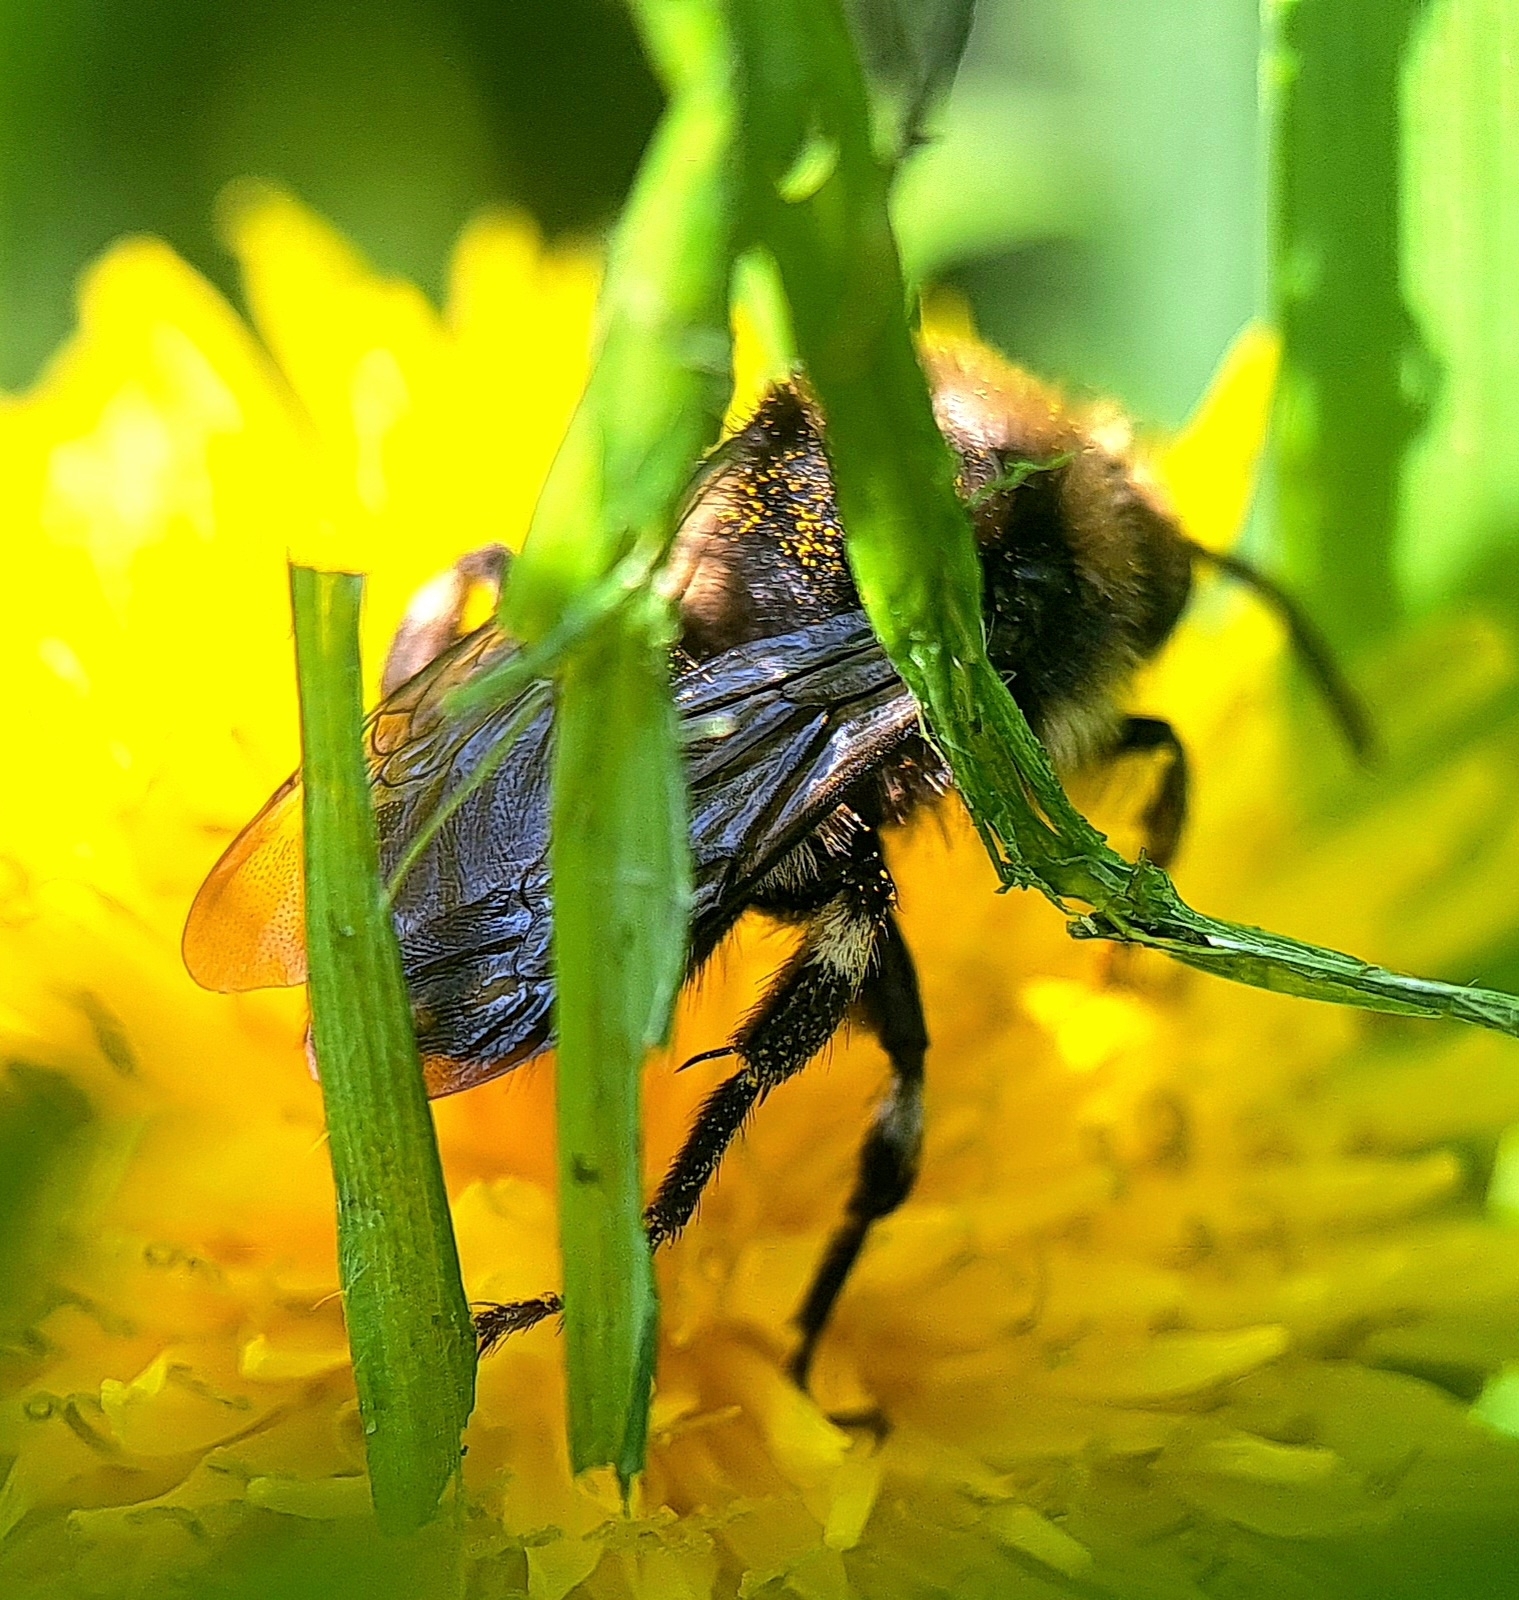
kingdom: Animalia
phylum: Arthropoda
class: Insecta
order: Hymenoptera
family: Apidae
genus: Melecta
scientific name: Melecta albifrons
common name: Common mourning bee
